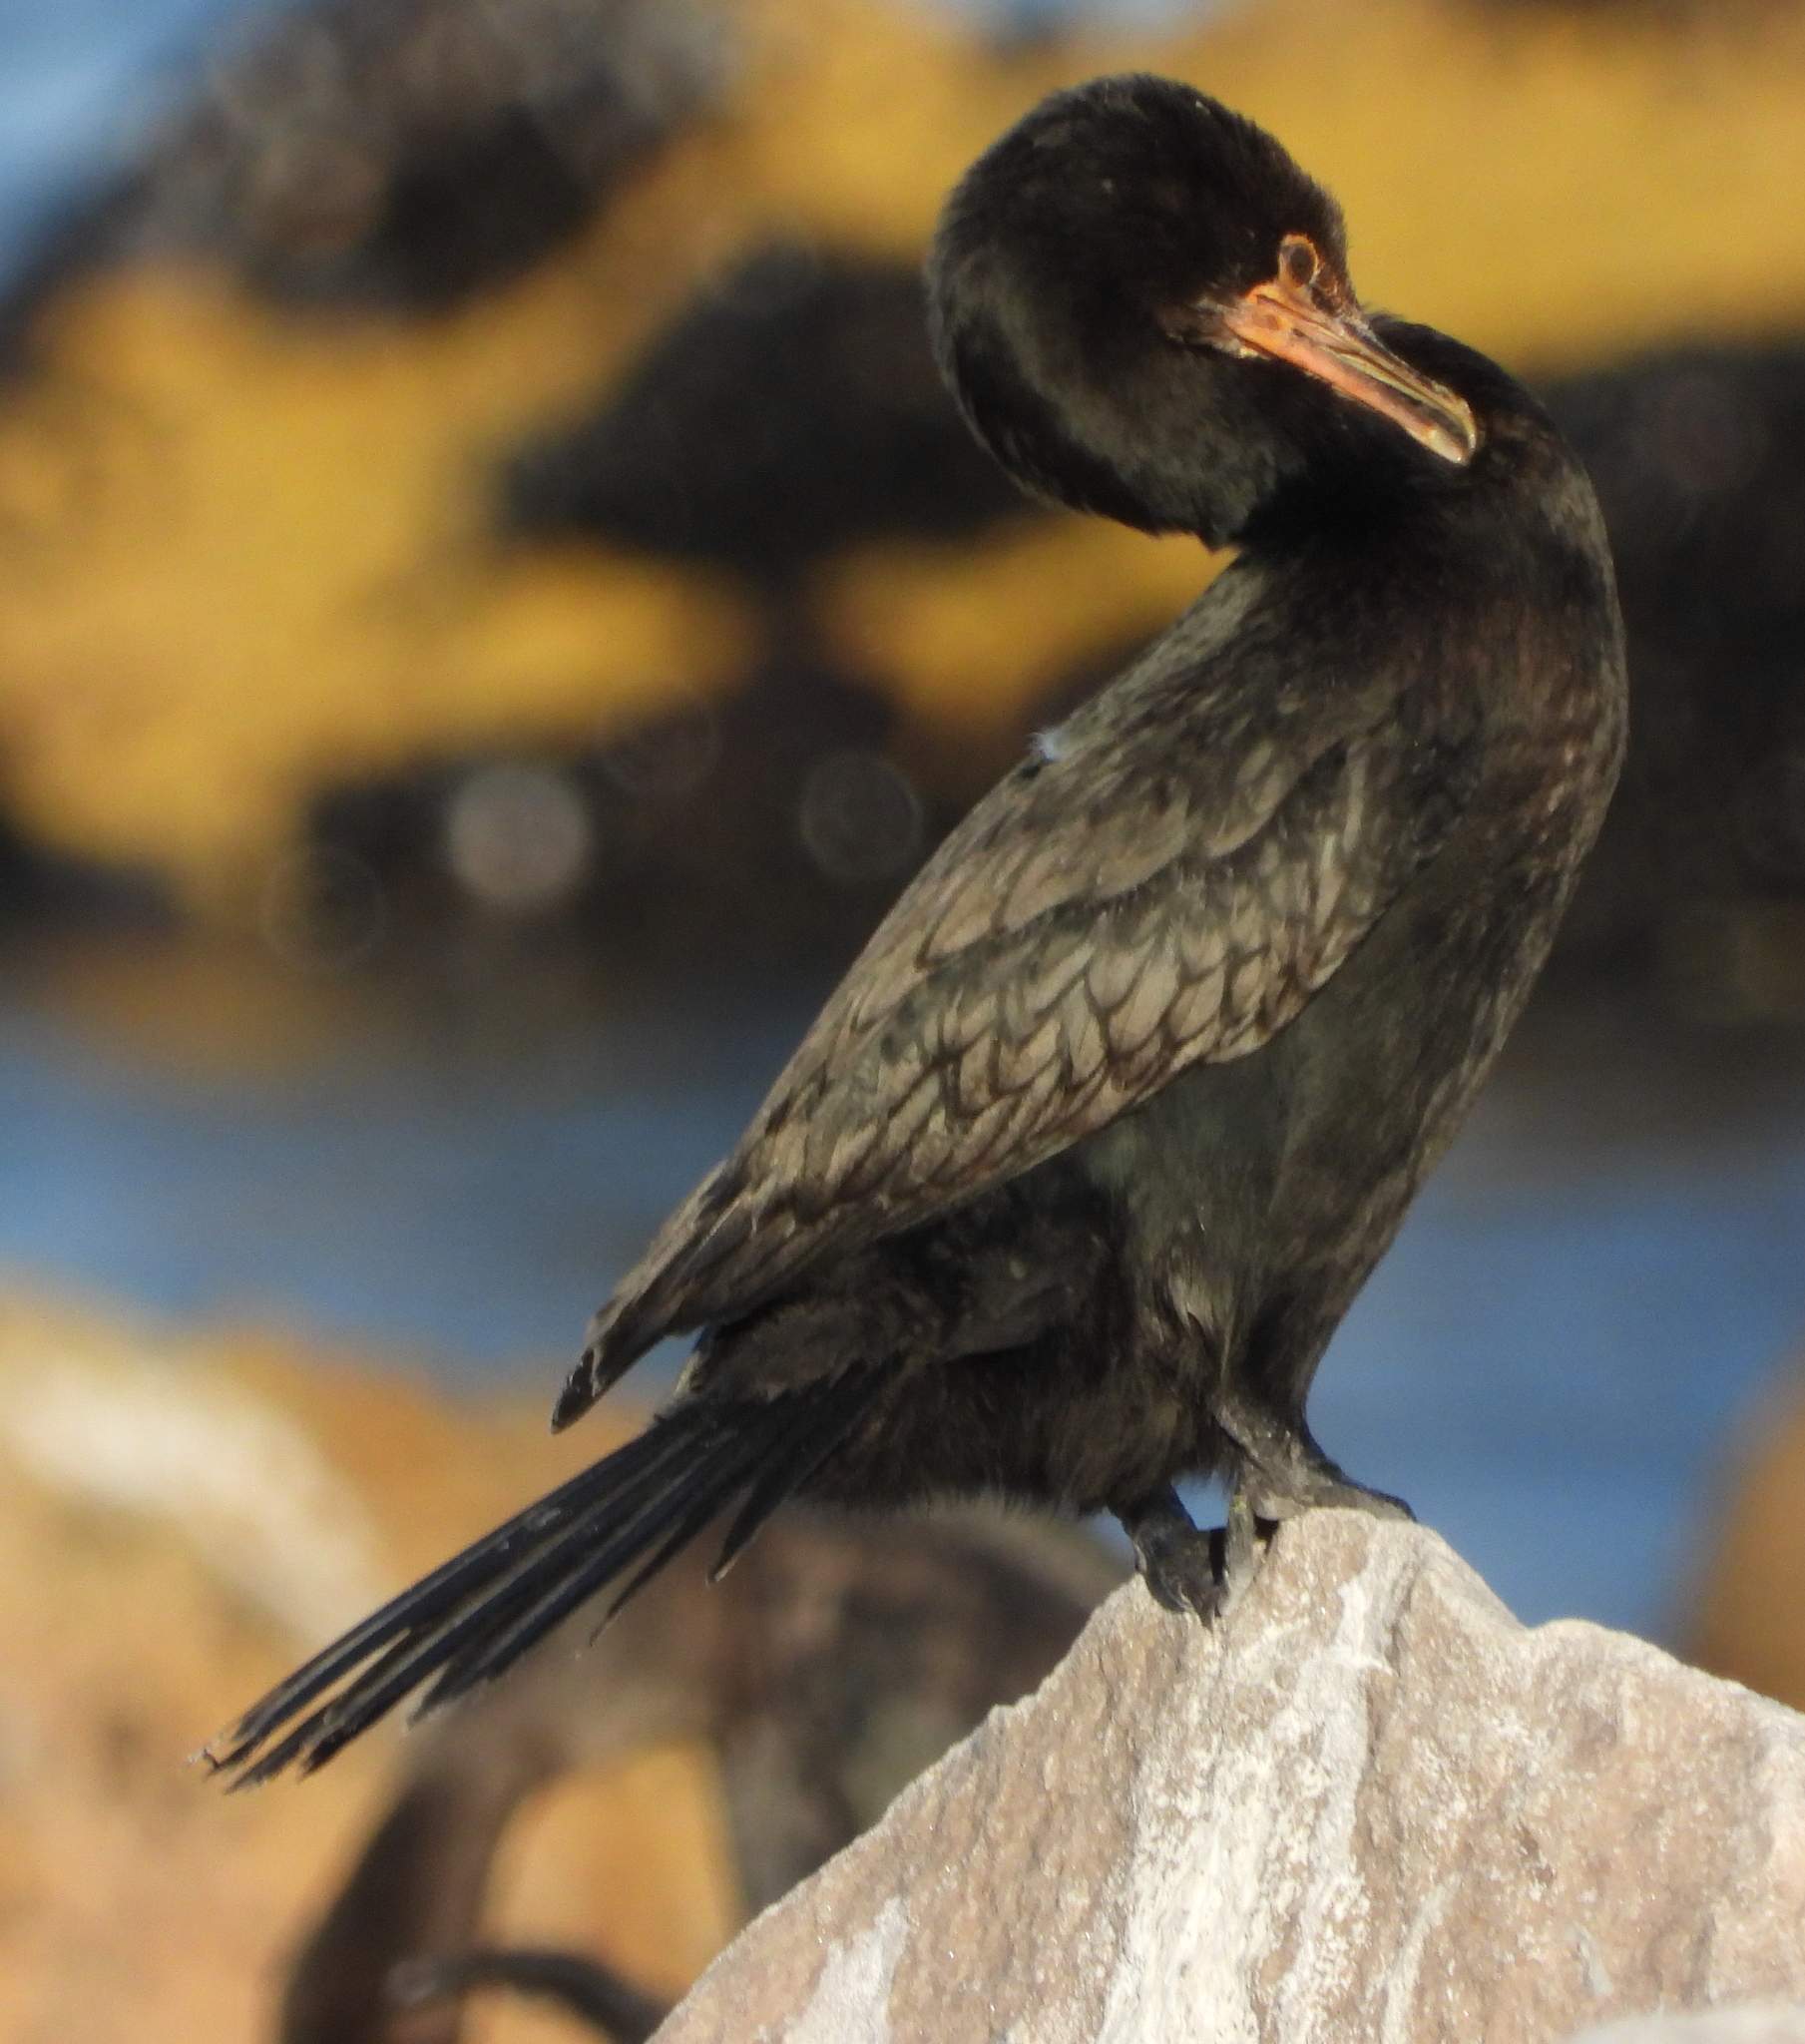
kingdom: Animalia
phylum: Chordata
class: Aves
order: Suliformes
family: Phalacrocoracidae
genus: Microcarbo
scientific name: Microcarbo coronatus
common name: Crowned cormorant
